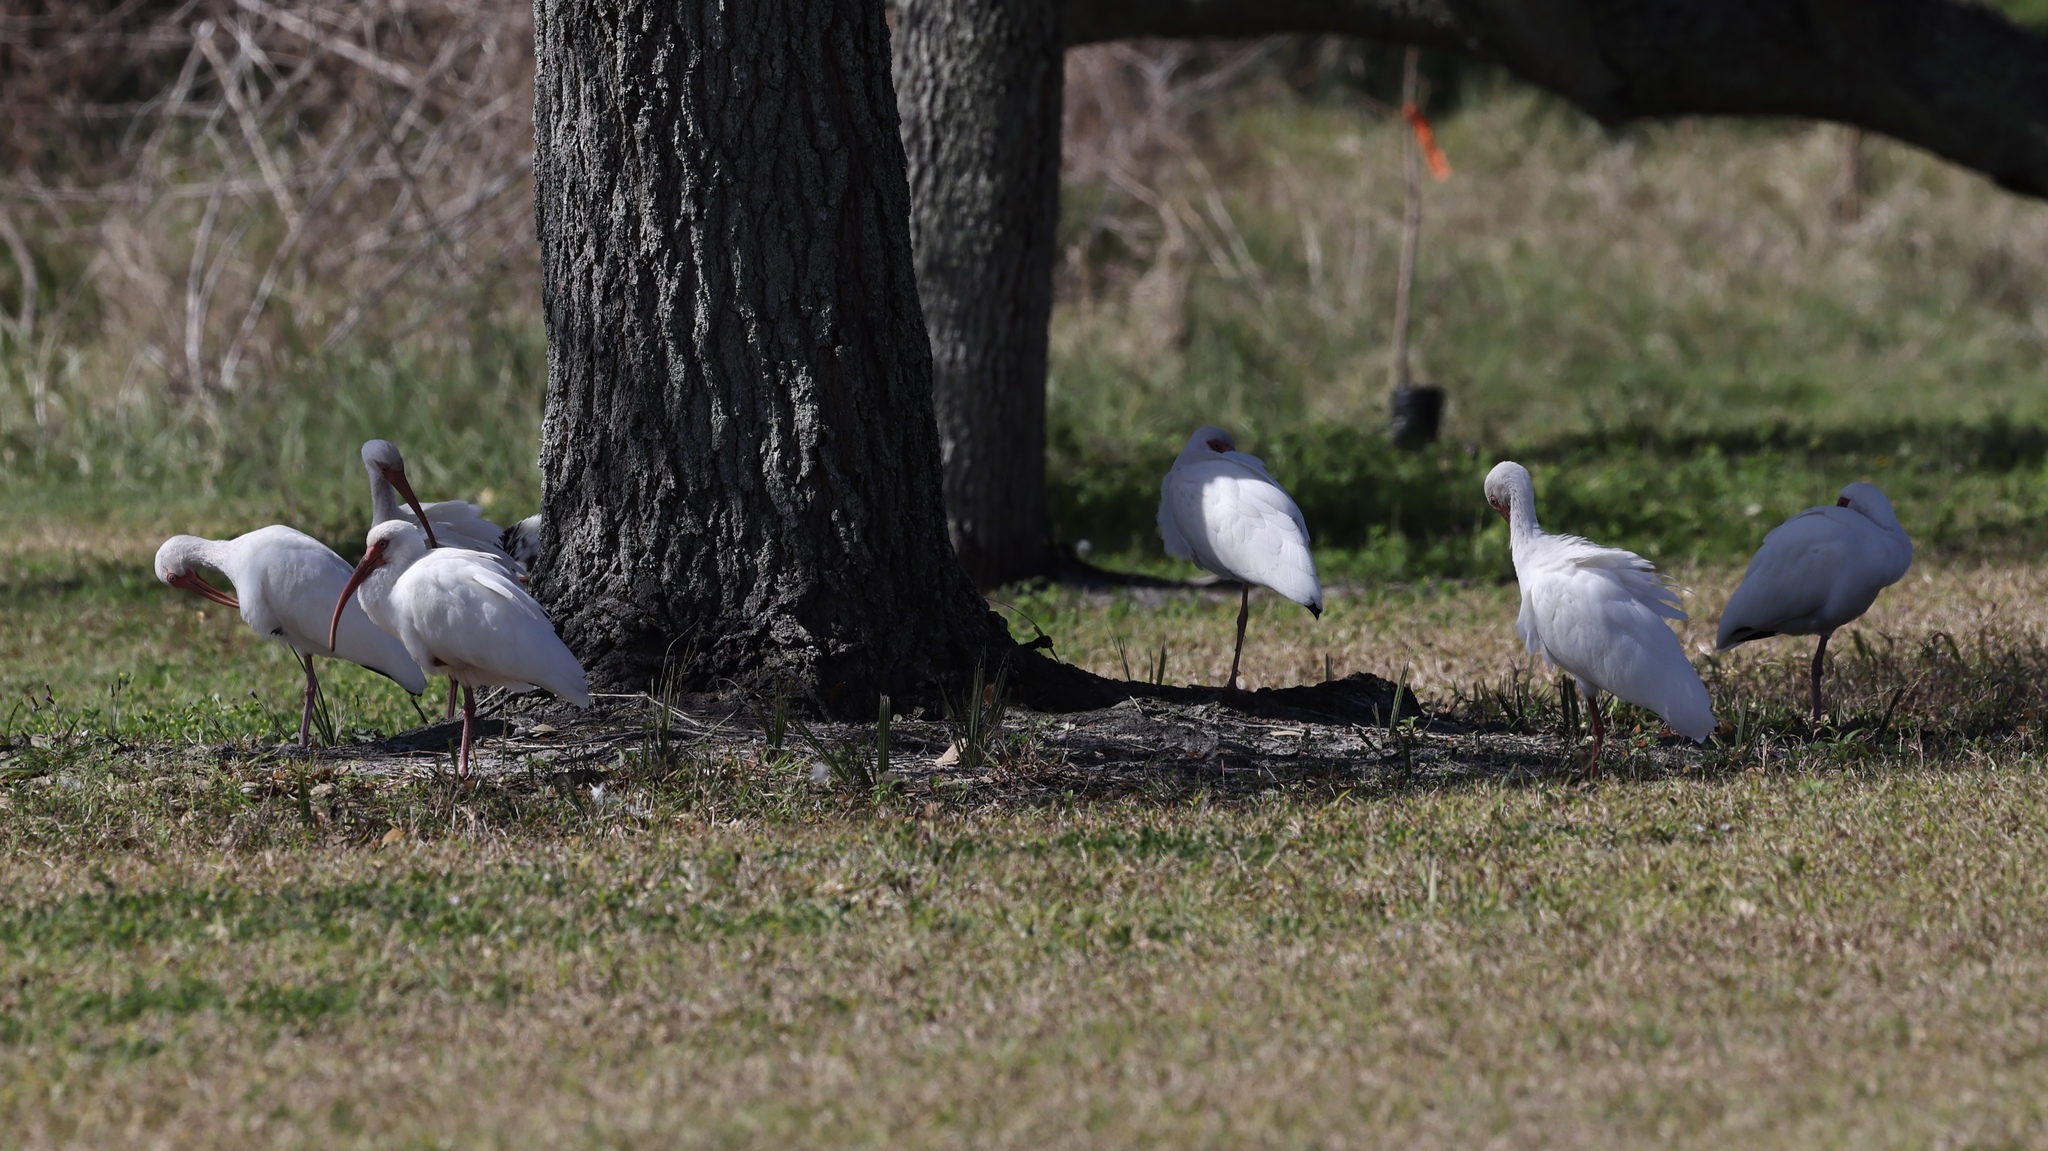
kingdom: Animalia
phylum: Chordata
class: Aves
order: Pelecaniformes
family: Threskiornithidae
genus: Eudocimus
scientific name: Eudocimus albus
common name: White ibis
